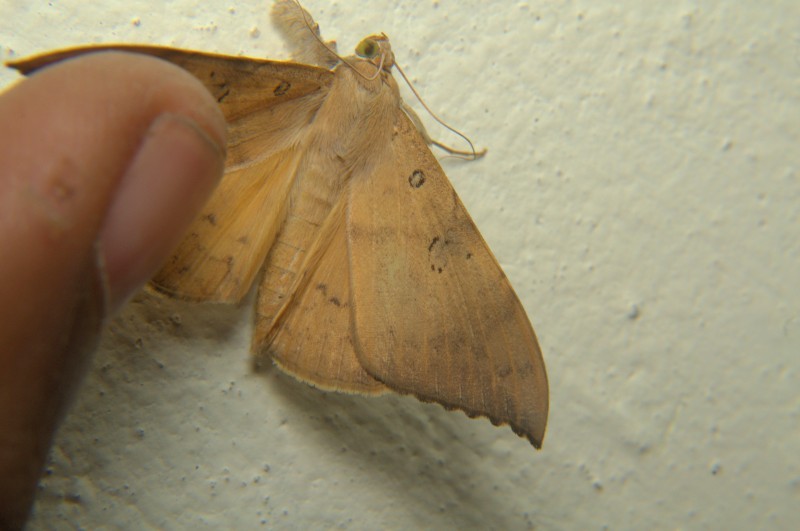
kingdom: Animalia
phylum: Arthropoda
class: Insecta
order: Lepidoptera
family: Erebidae
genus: Oxyodes
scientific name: Oxyodes scrobiculata
